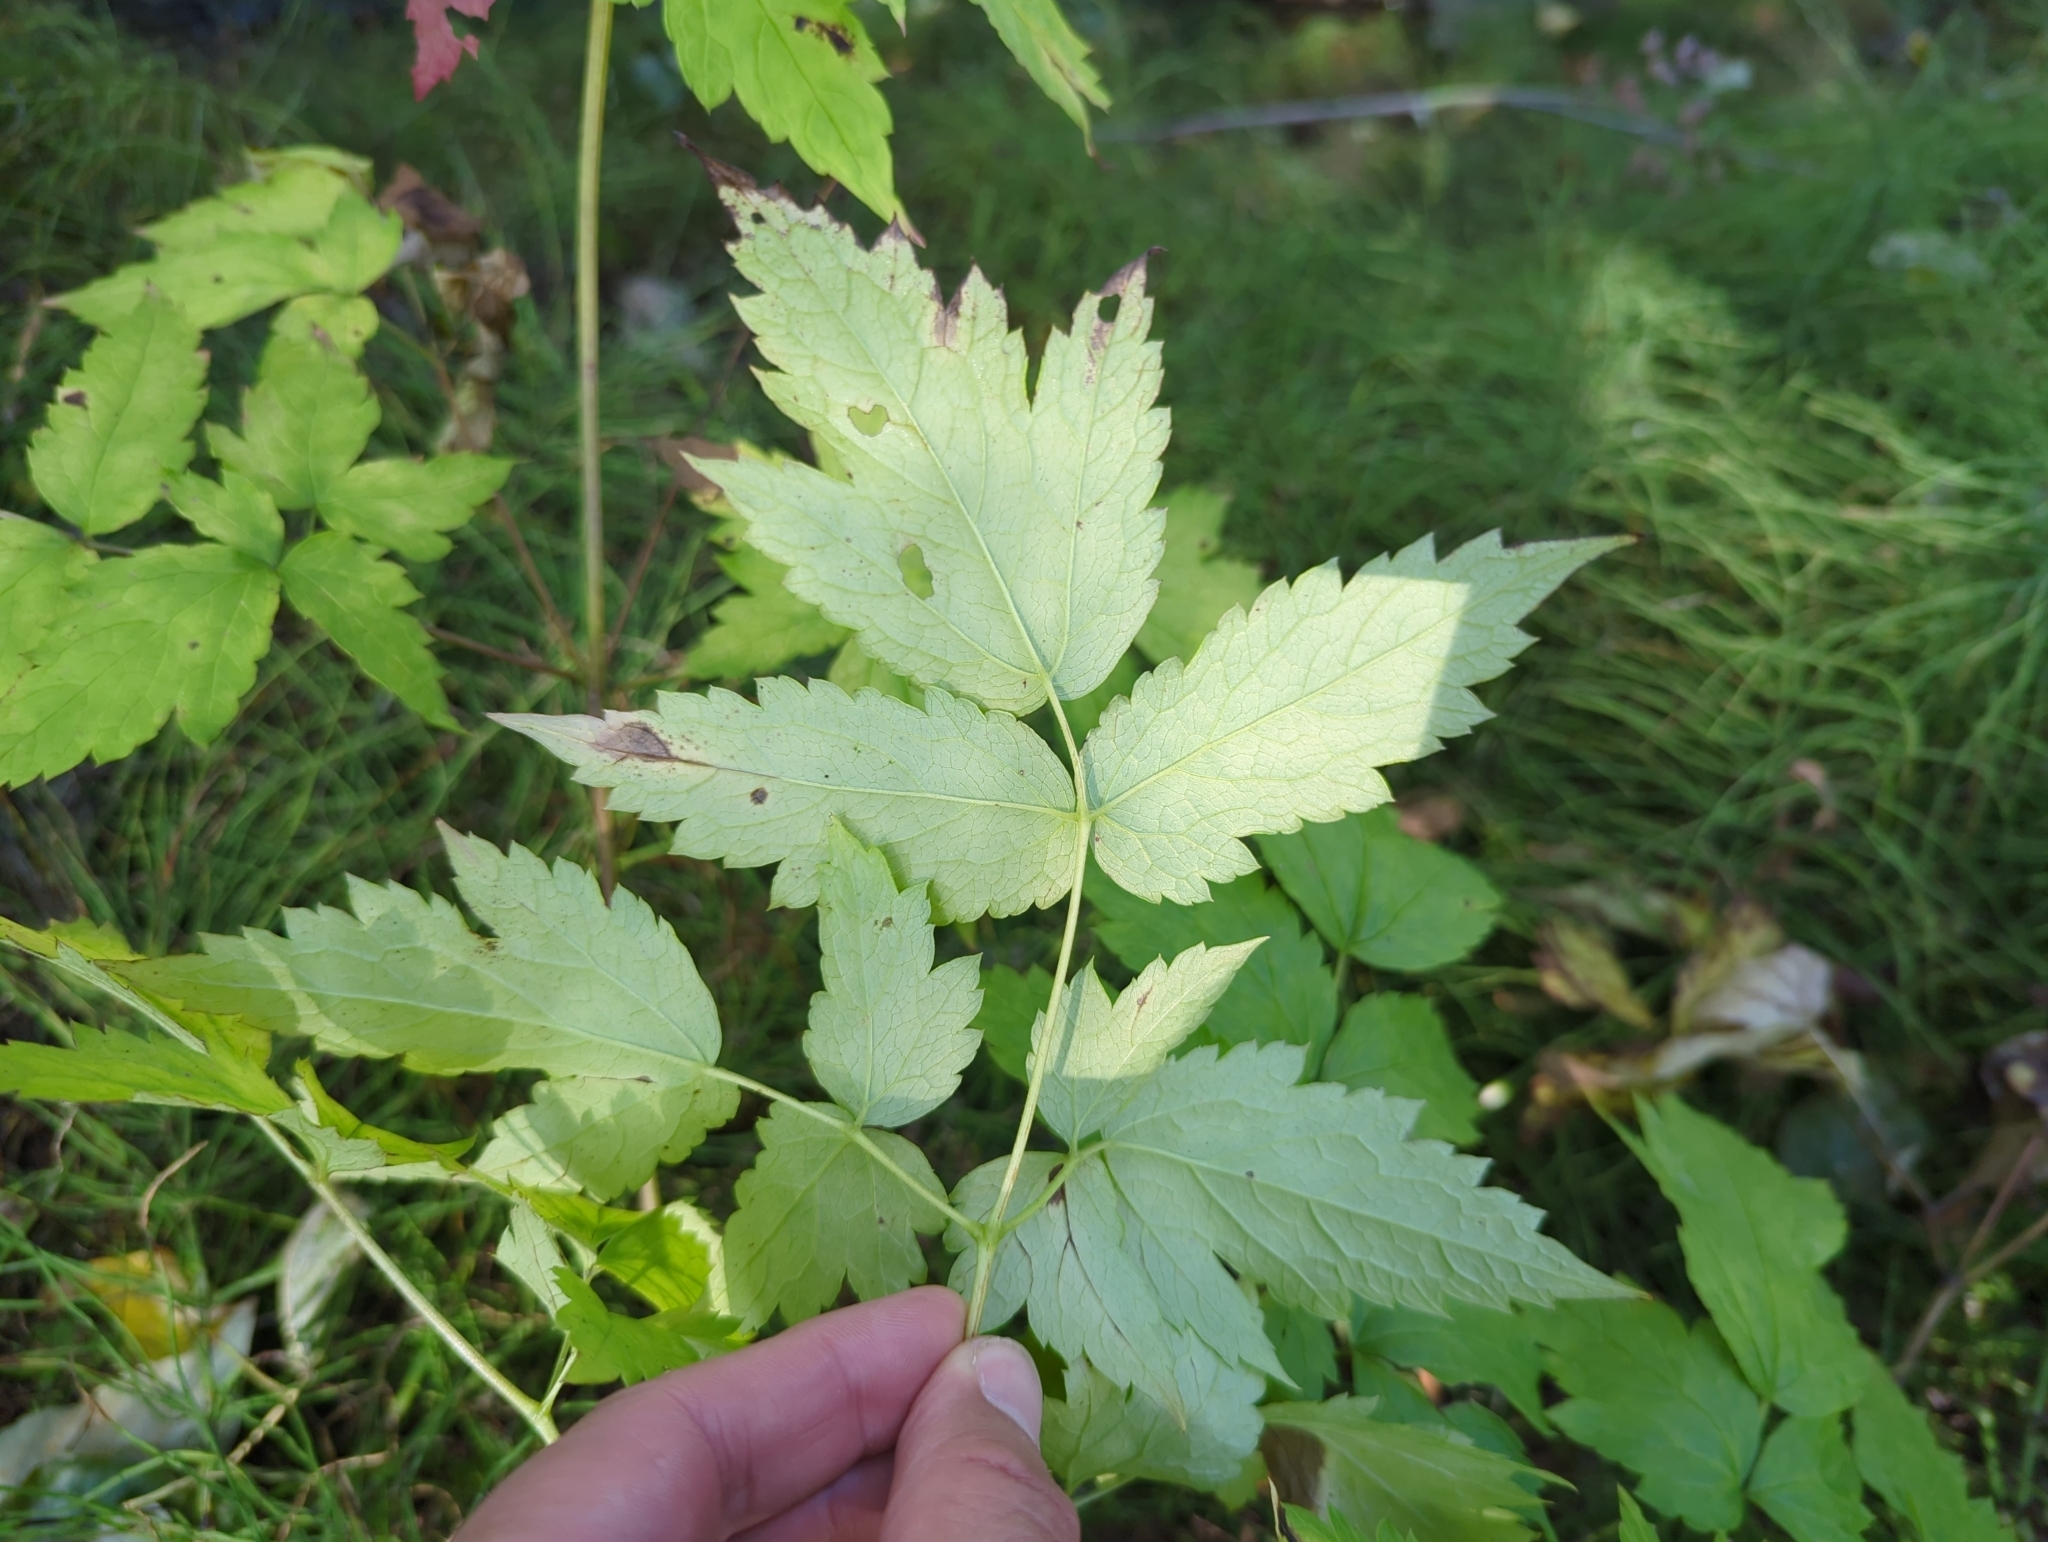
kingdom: Plantae
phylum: Tracheophyta
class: Magnoliopsida
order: Ranunculales
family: Ranunculaceae
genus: Actaea
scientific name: Actaea rubra
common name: Red baneberry
